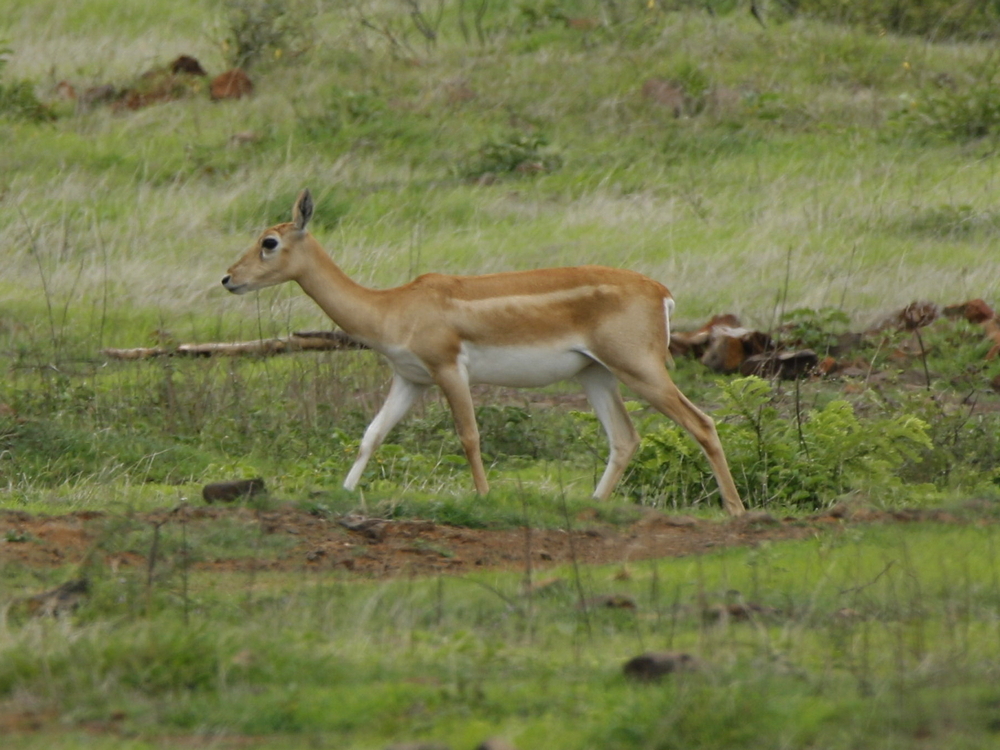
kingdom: Animalia
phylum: Chordata
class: Mammalia
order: Artiodactyla
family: Bovidae
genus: Antilope
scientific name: Antilope cervicapra
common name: Blackbuck
